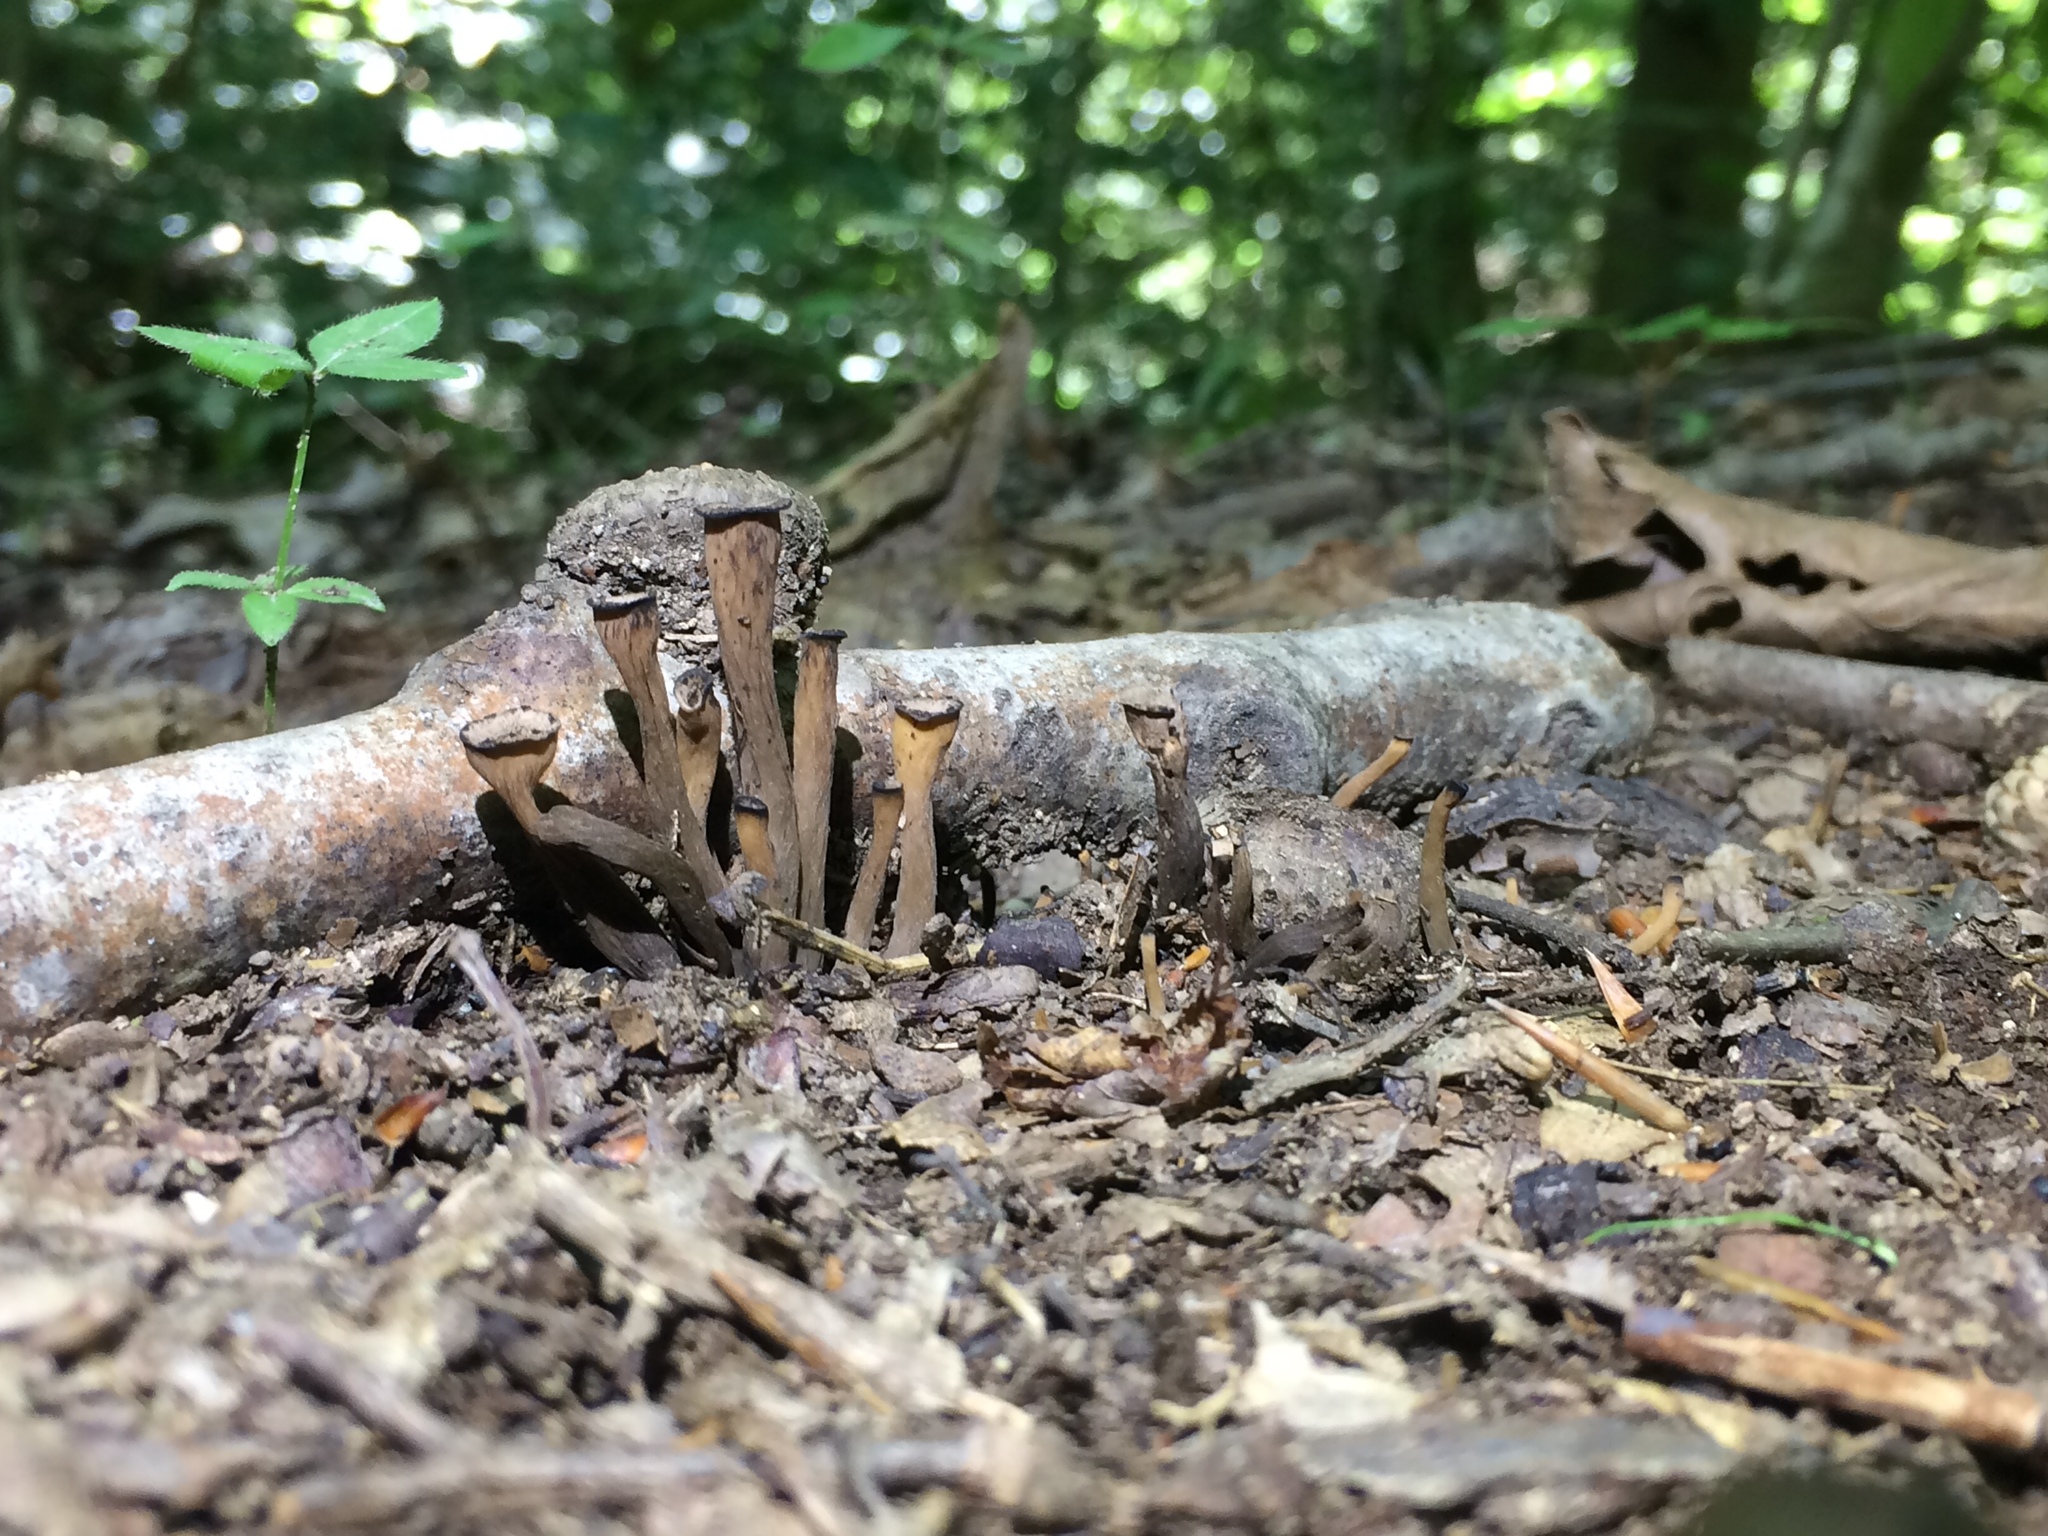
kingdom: Fungi
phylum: Basidiomycota
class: Agaricomycetes
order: Cantharellales
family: Hydnaceae
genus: Craterellus
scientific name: Craterellus cornucopioides
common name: Horn of plenty
